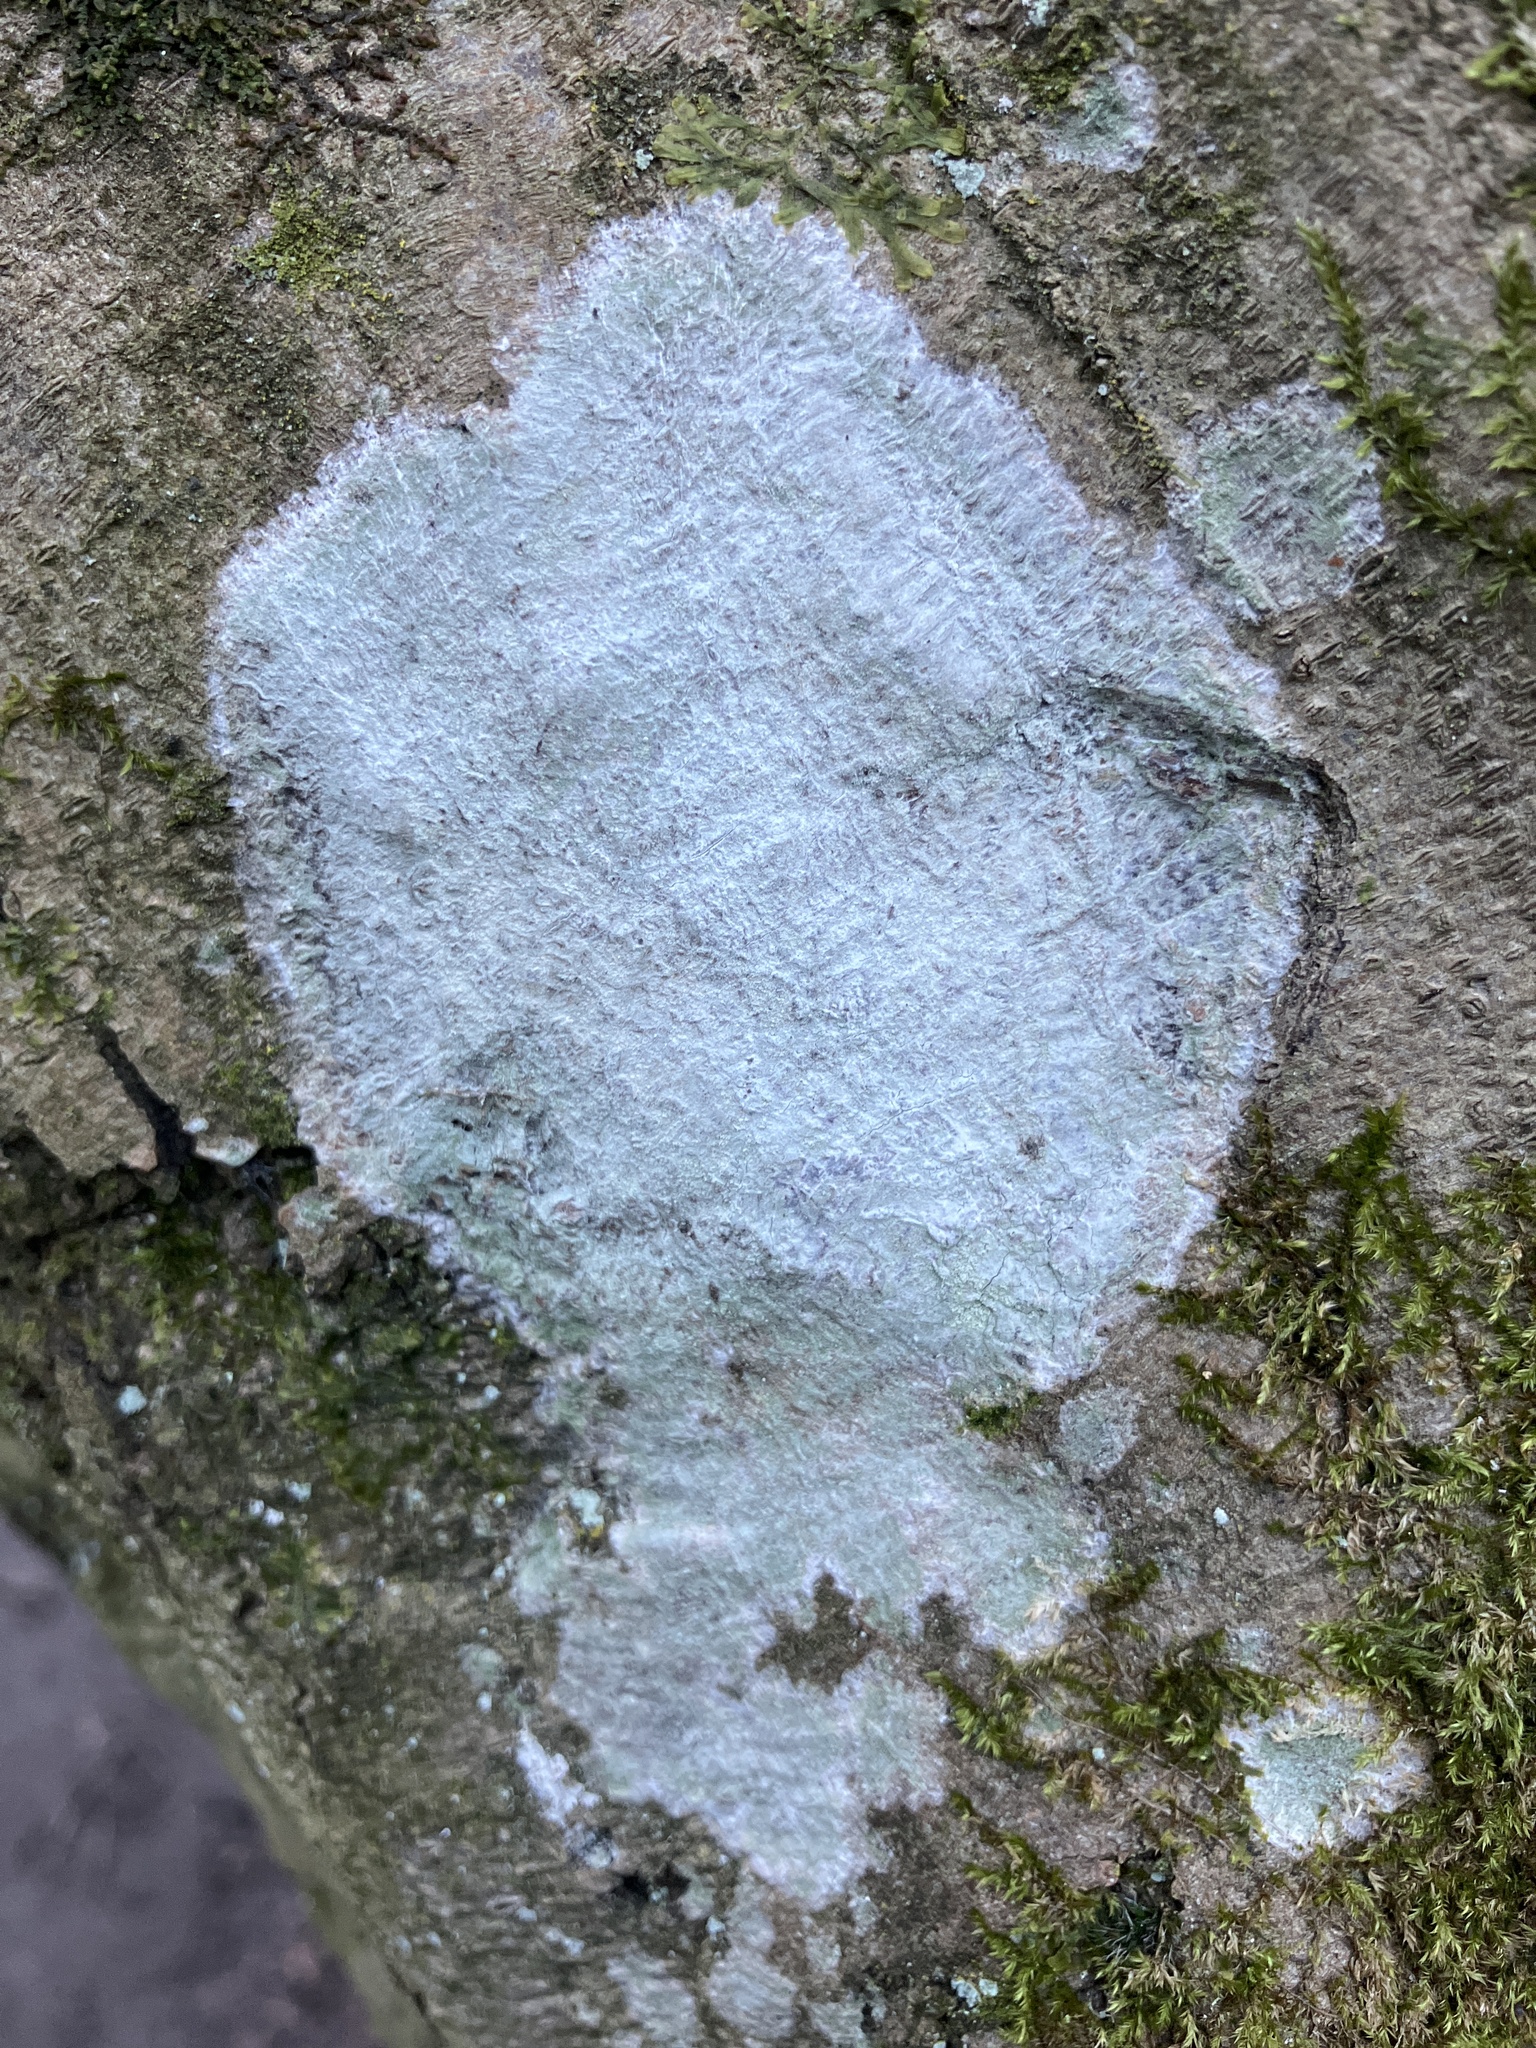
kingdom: Fungi
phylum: Ascomycota
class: Lecanoromycetes
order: Ostropales
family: Phlyctidaceae
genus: Phlyctis
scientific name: Phlyctis argena
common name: Whitewash lichen
